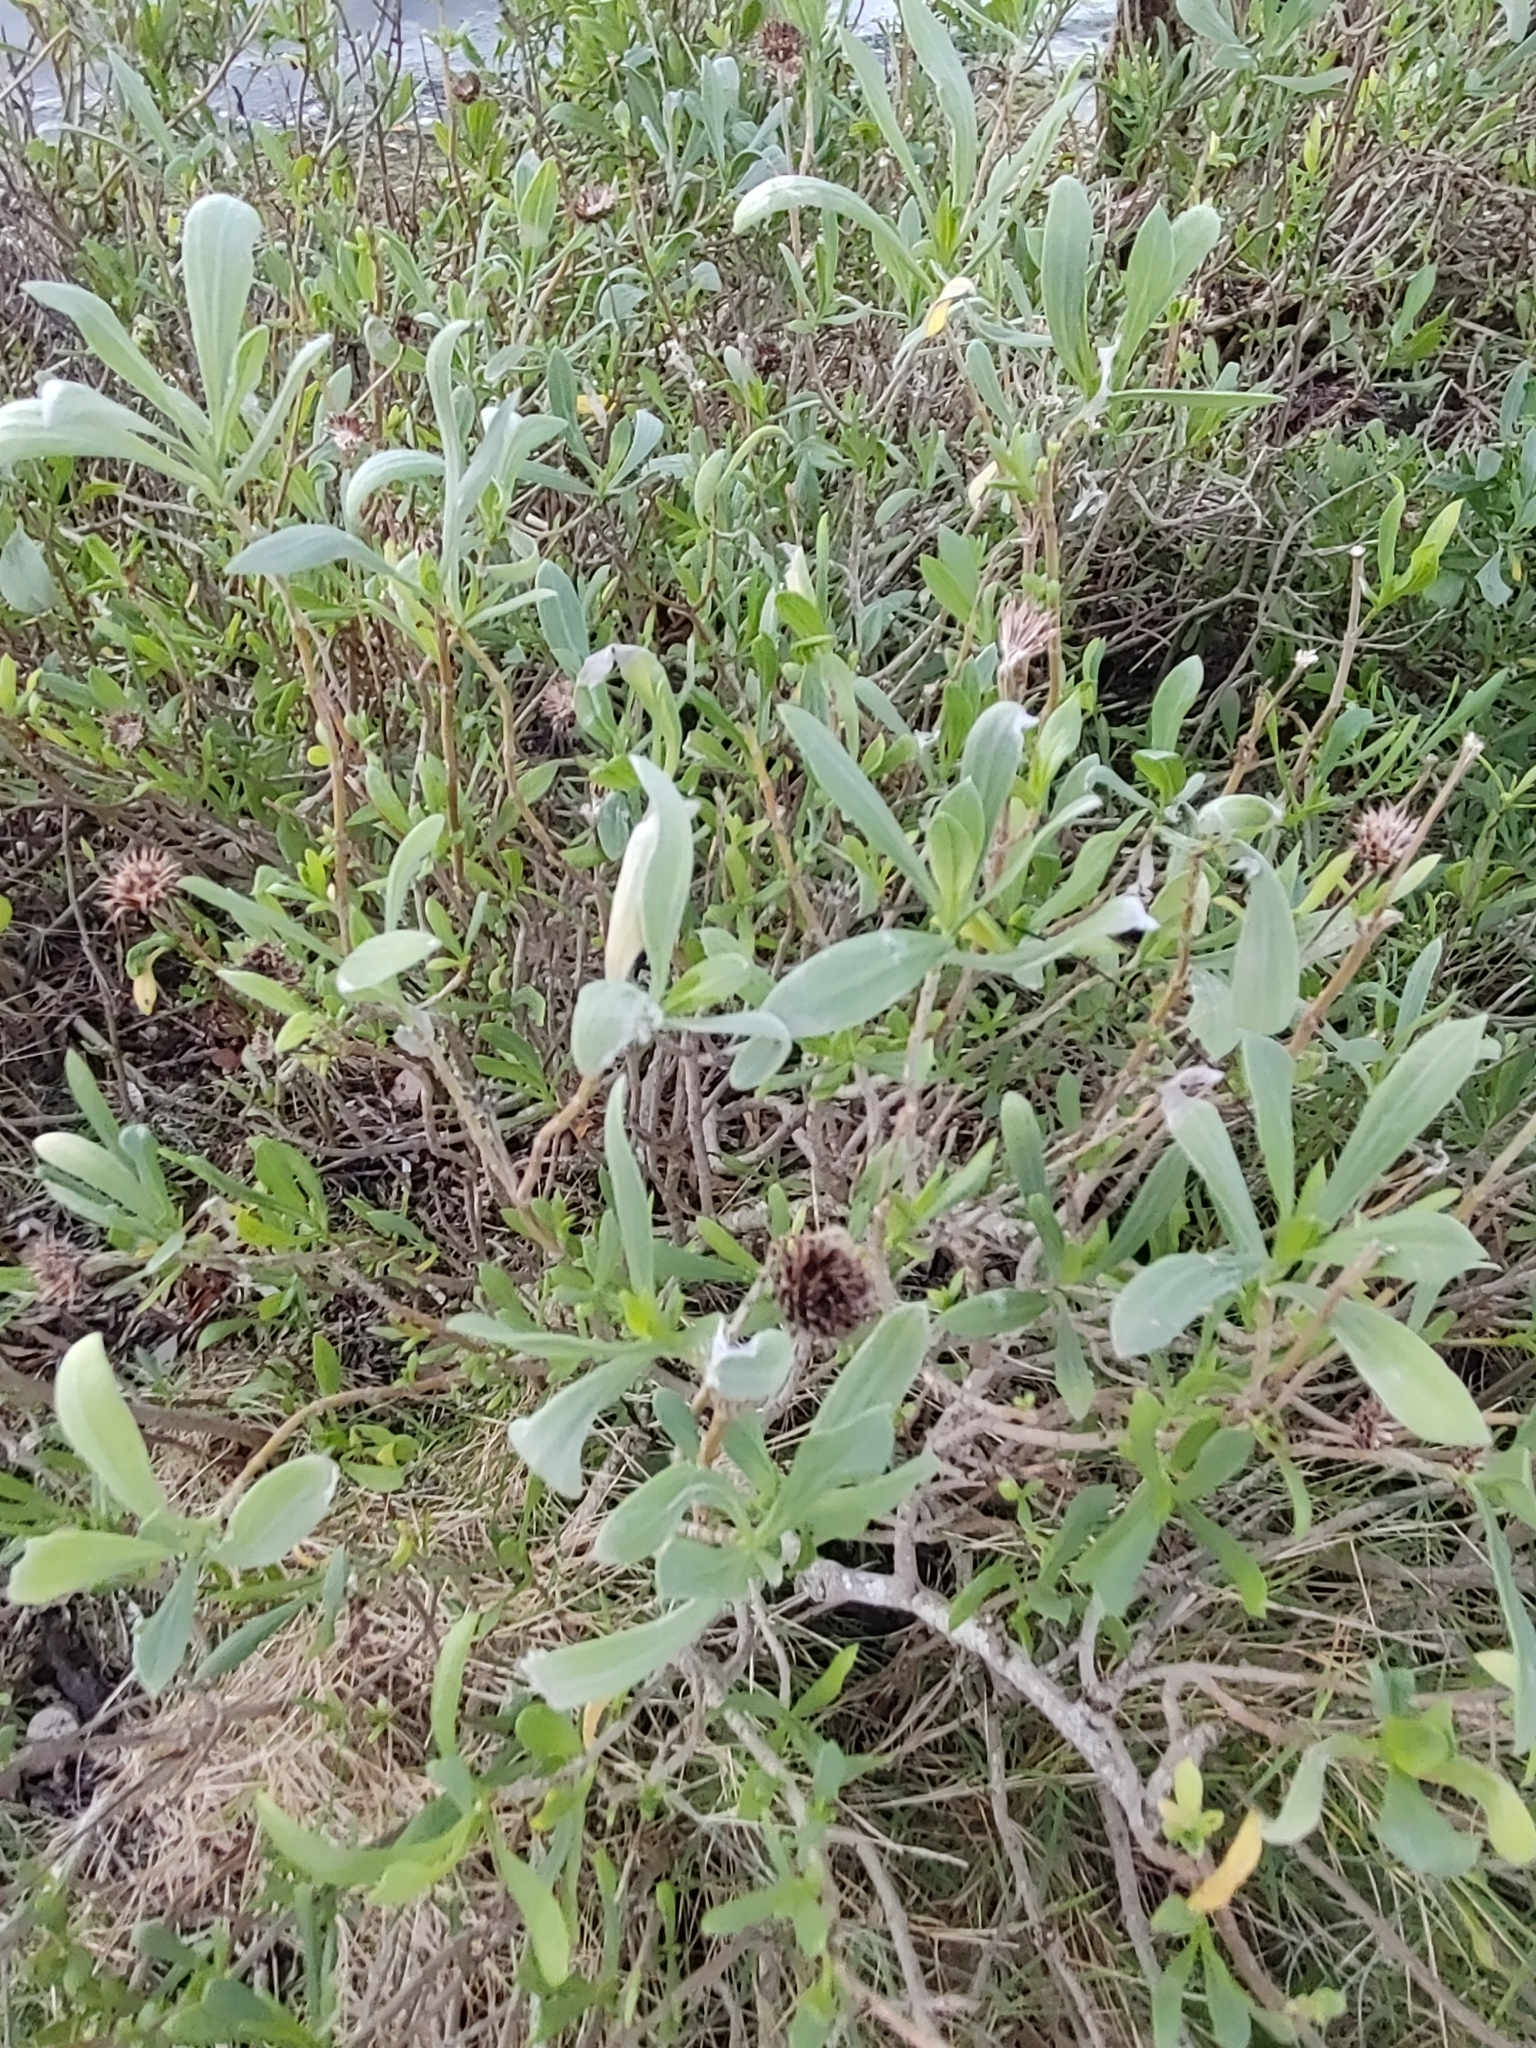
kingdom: Plantae
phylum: Tracheophyta
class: Magnoliopsida
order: Asterales
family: Asteraceae
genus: Borrichia
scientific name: Borrichia frutescens
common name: Sea oxeye
